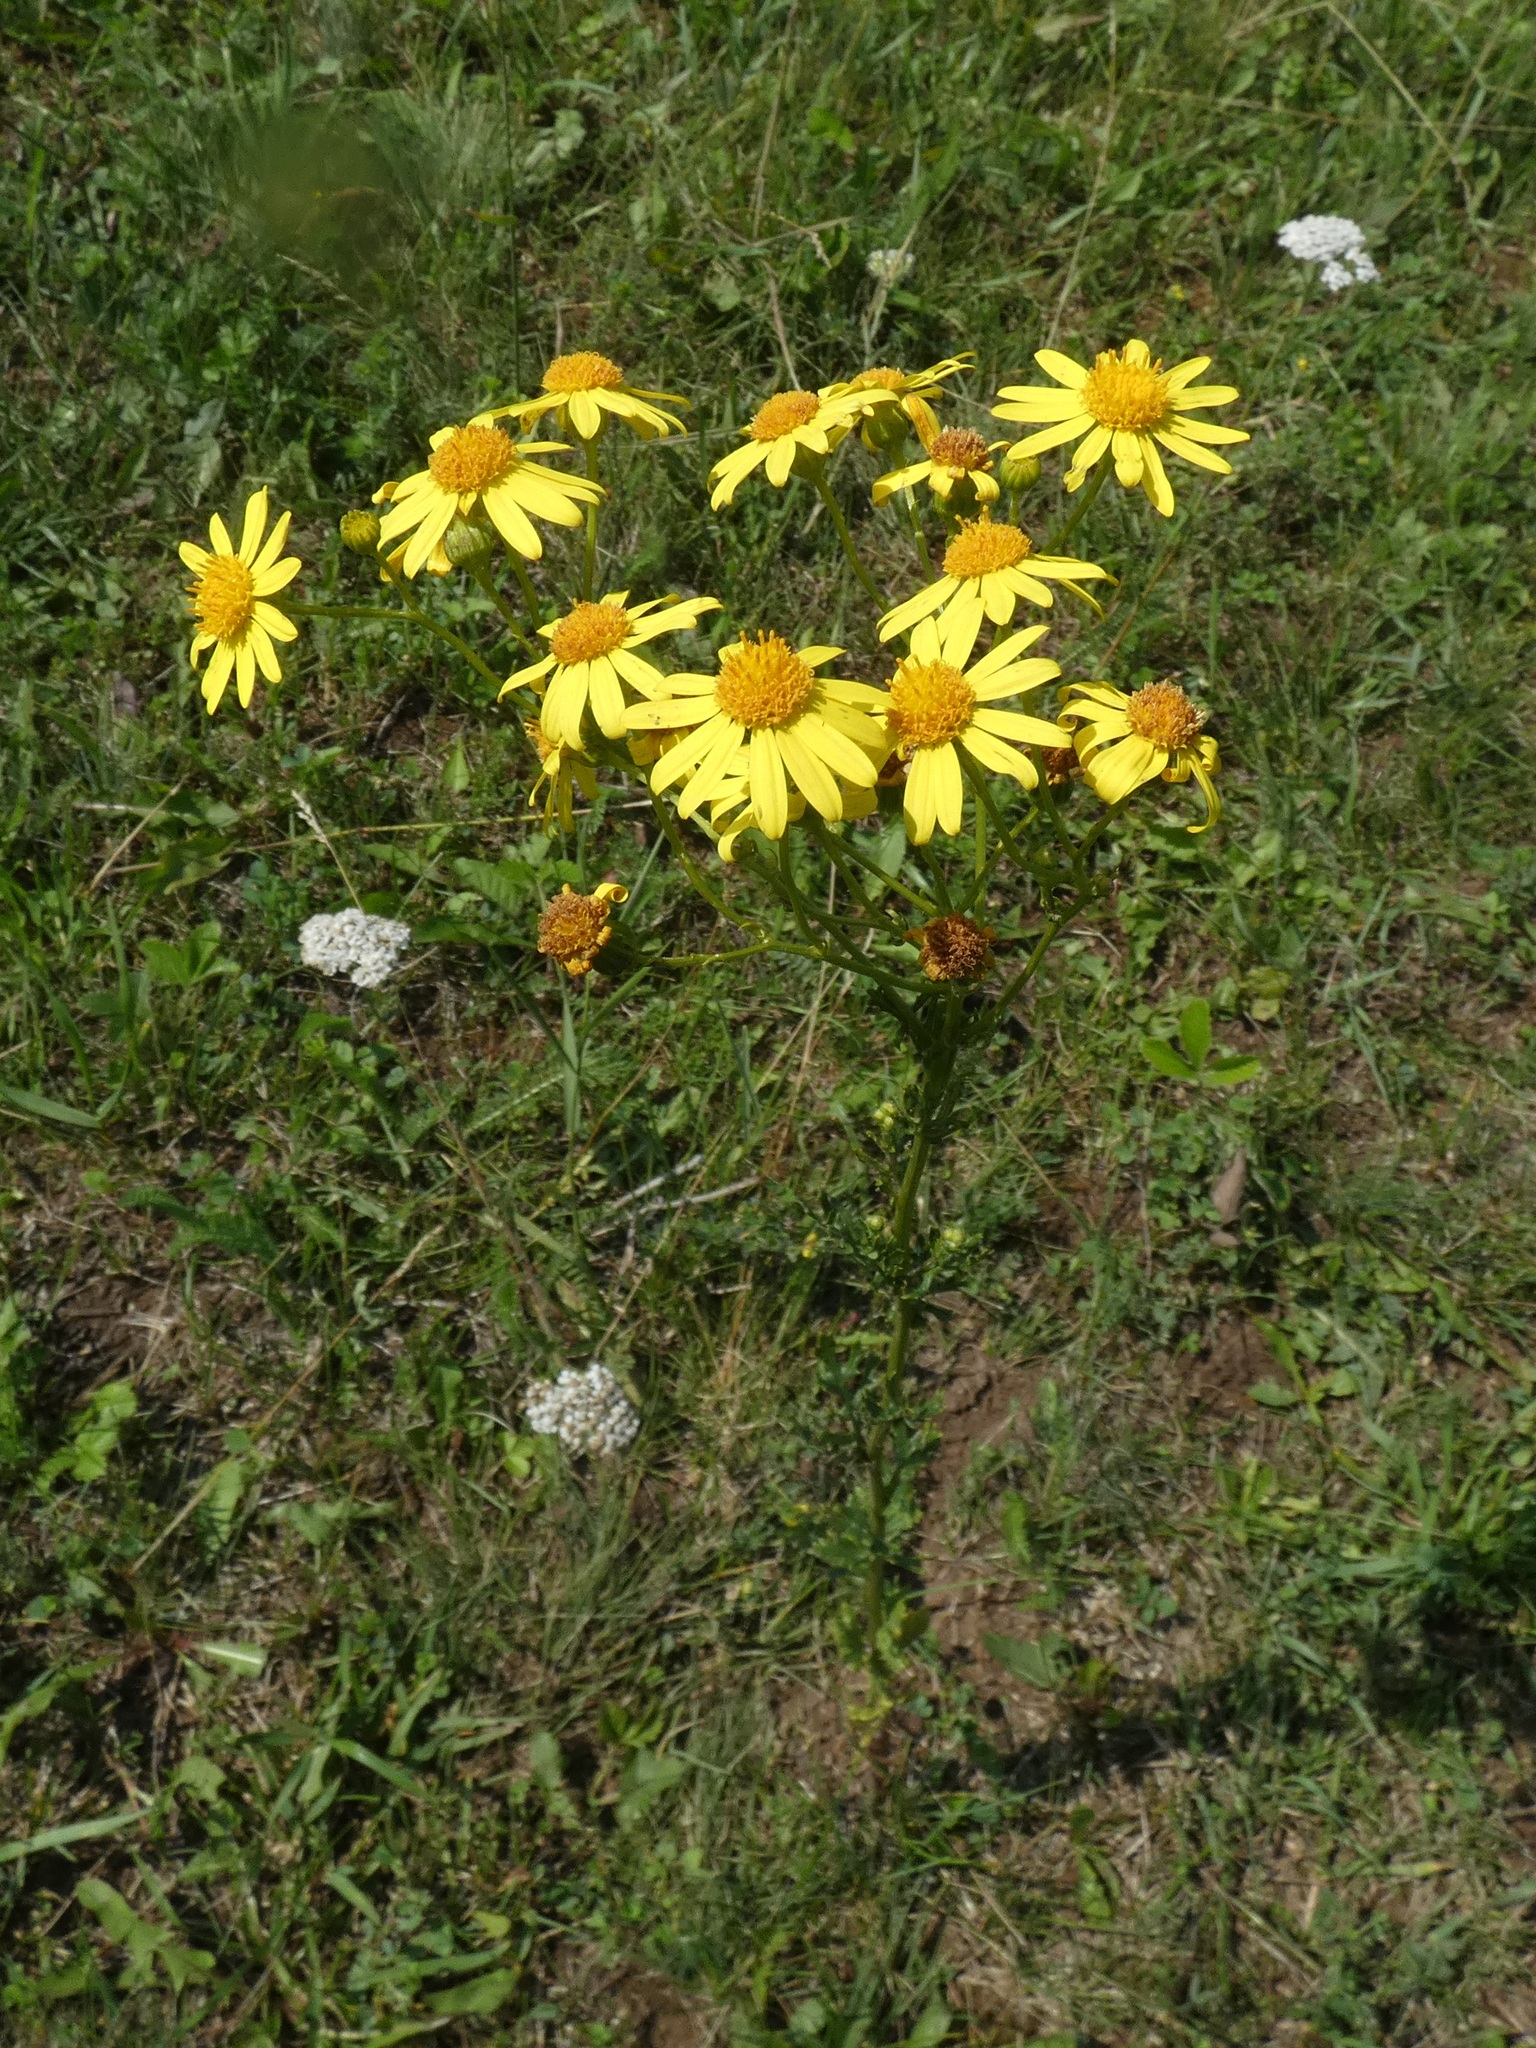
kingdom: Plantae
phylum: Tracheophyta
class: Magnoliopsida
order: Asterales
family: Asteraceae
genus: Jacobaea
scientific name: Jacobaea vulgaris
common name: Stinking willie
